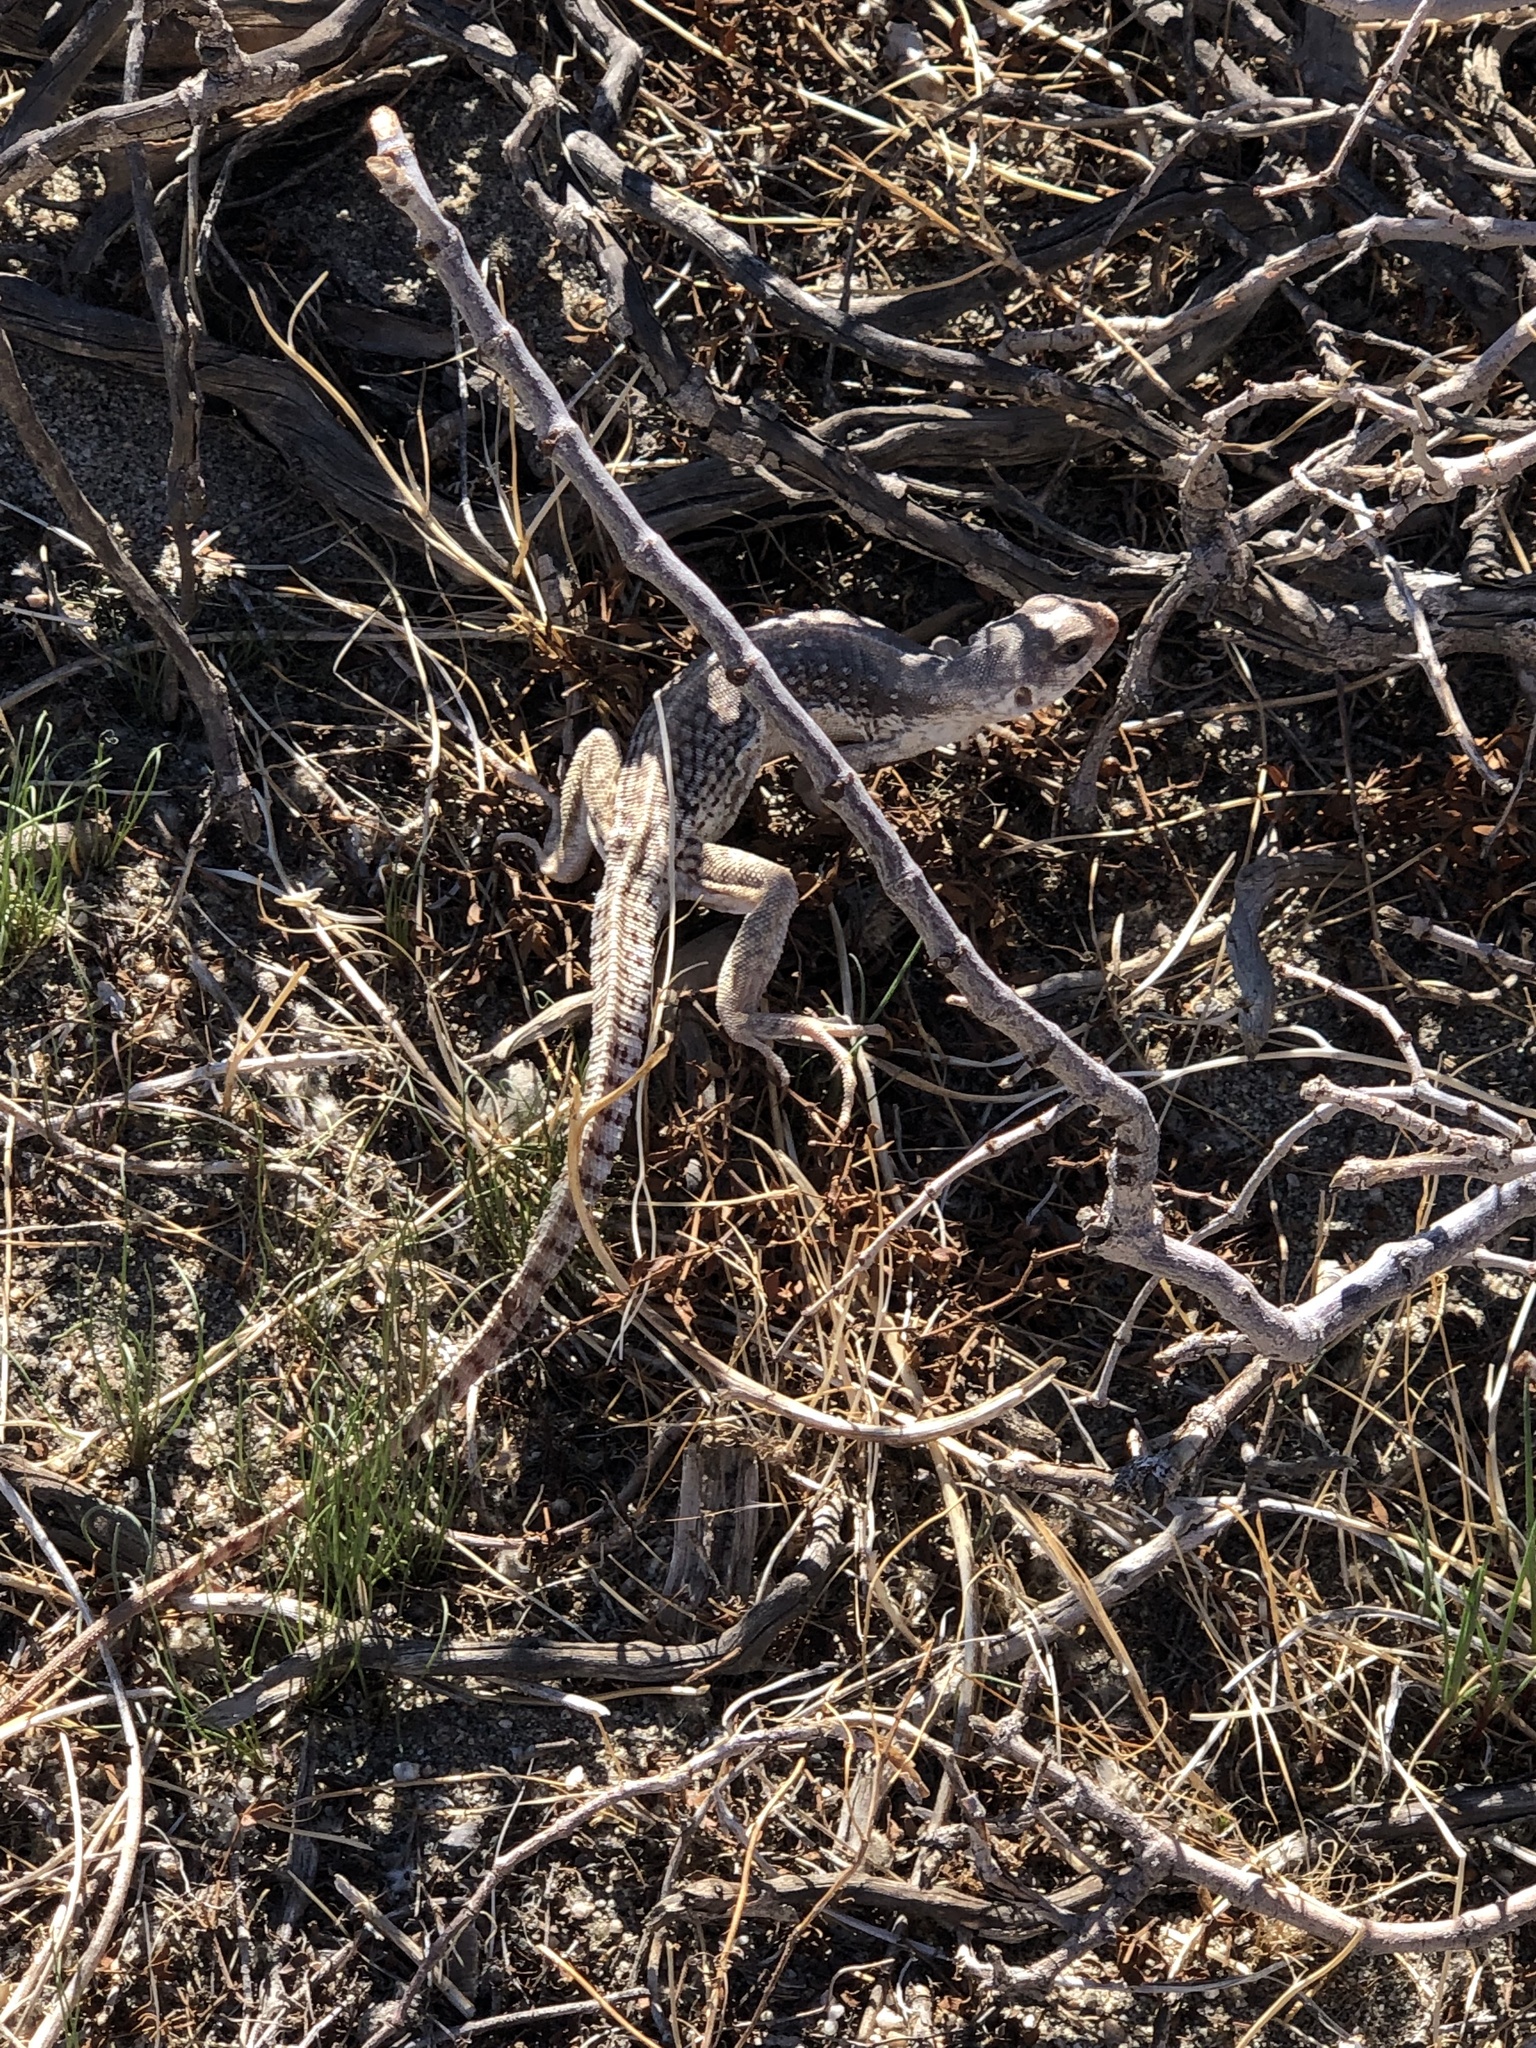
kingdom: Animalia
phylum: Chordata
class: Squamata
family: Iguanidae
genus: Dipsosaurus
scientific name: Dipsosaurus dorsalis
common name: Desert iguana
